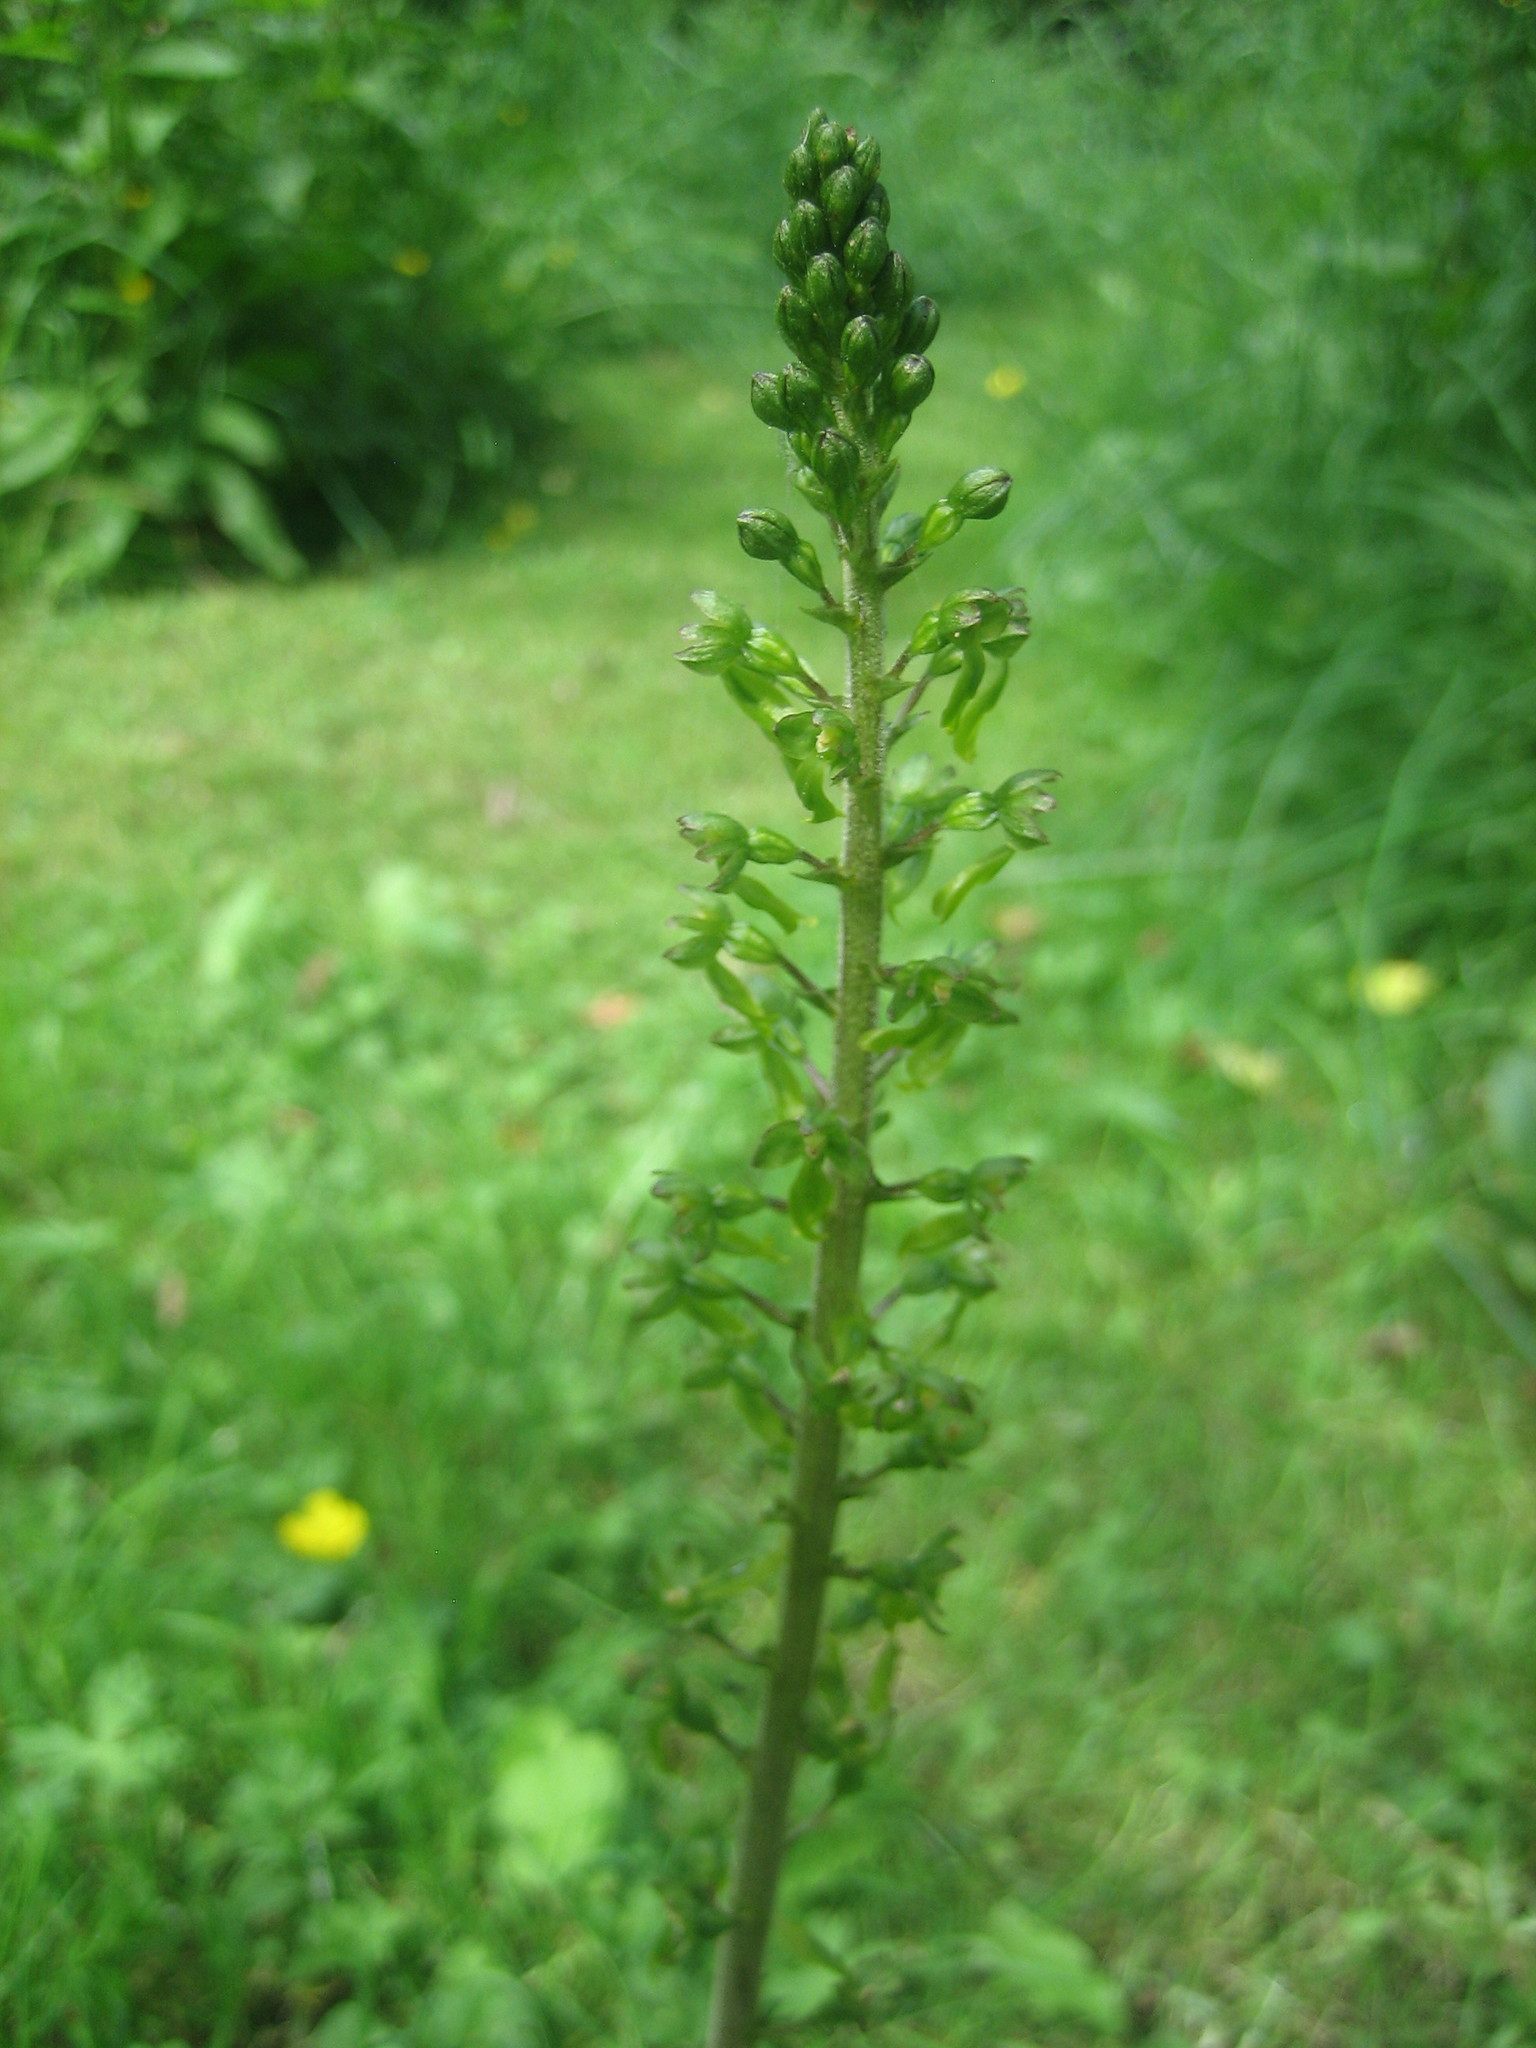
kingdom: Plantae
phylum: Tracheophyta
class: Liliopsida
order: Asparagales
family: Orchidaceae
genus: Neottia
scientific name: Neottia ovata
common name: Common twayblade
